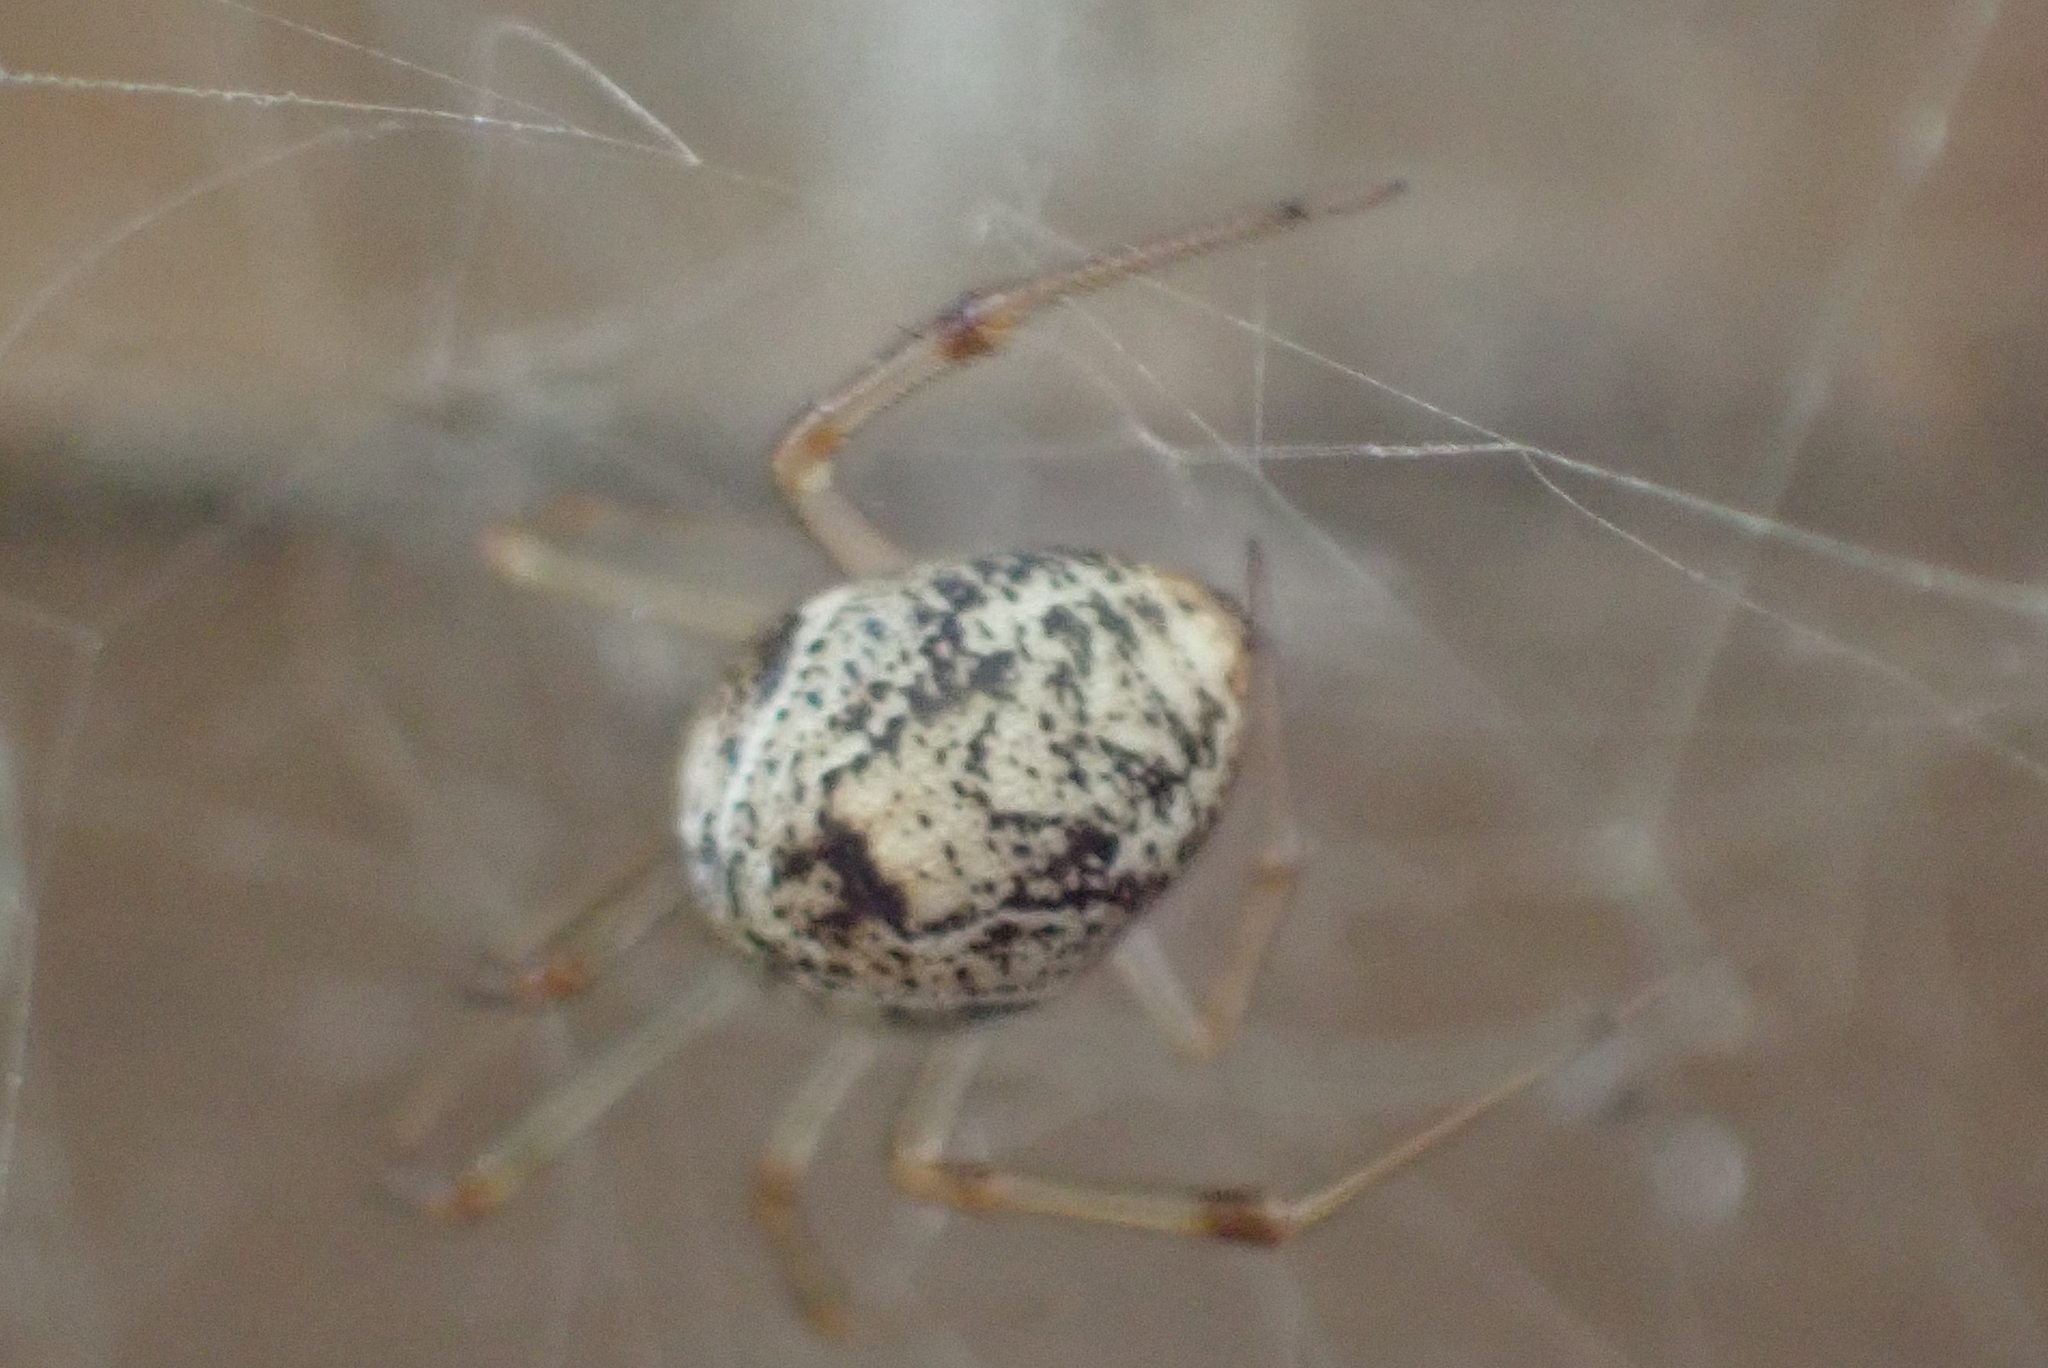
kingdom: Animalia
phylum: Arthropoda
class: Arachnida
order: Araneae
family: Theridiidae
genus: Parasteatoda
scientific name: Parasteatoda tepidariorum
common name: Common house spider
